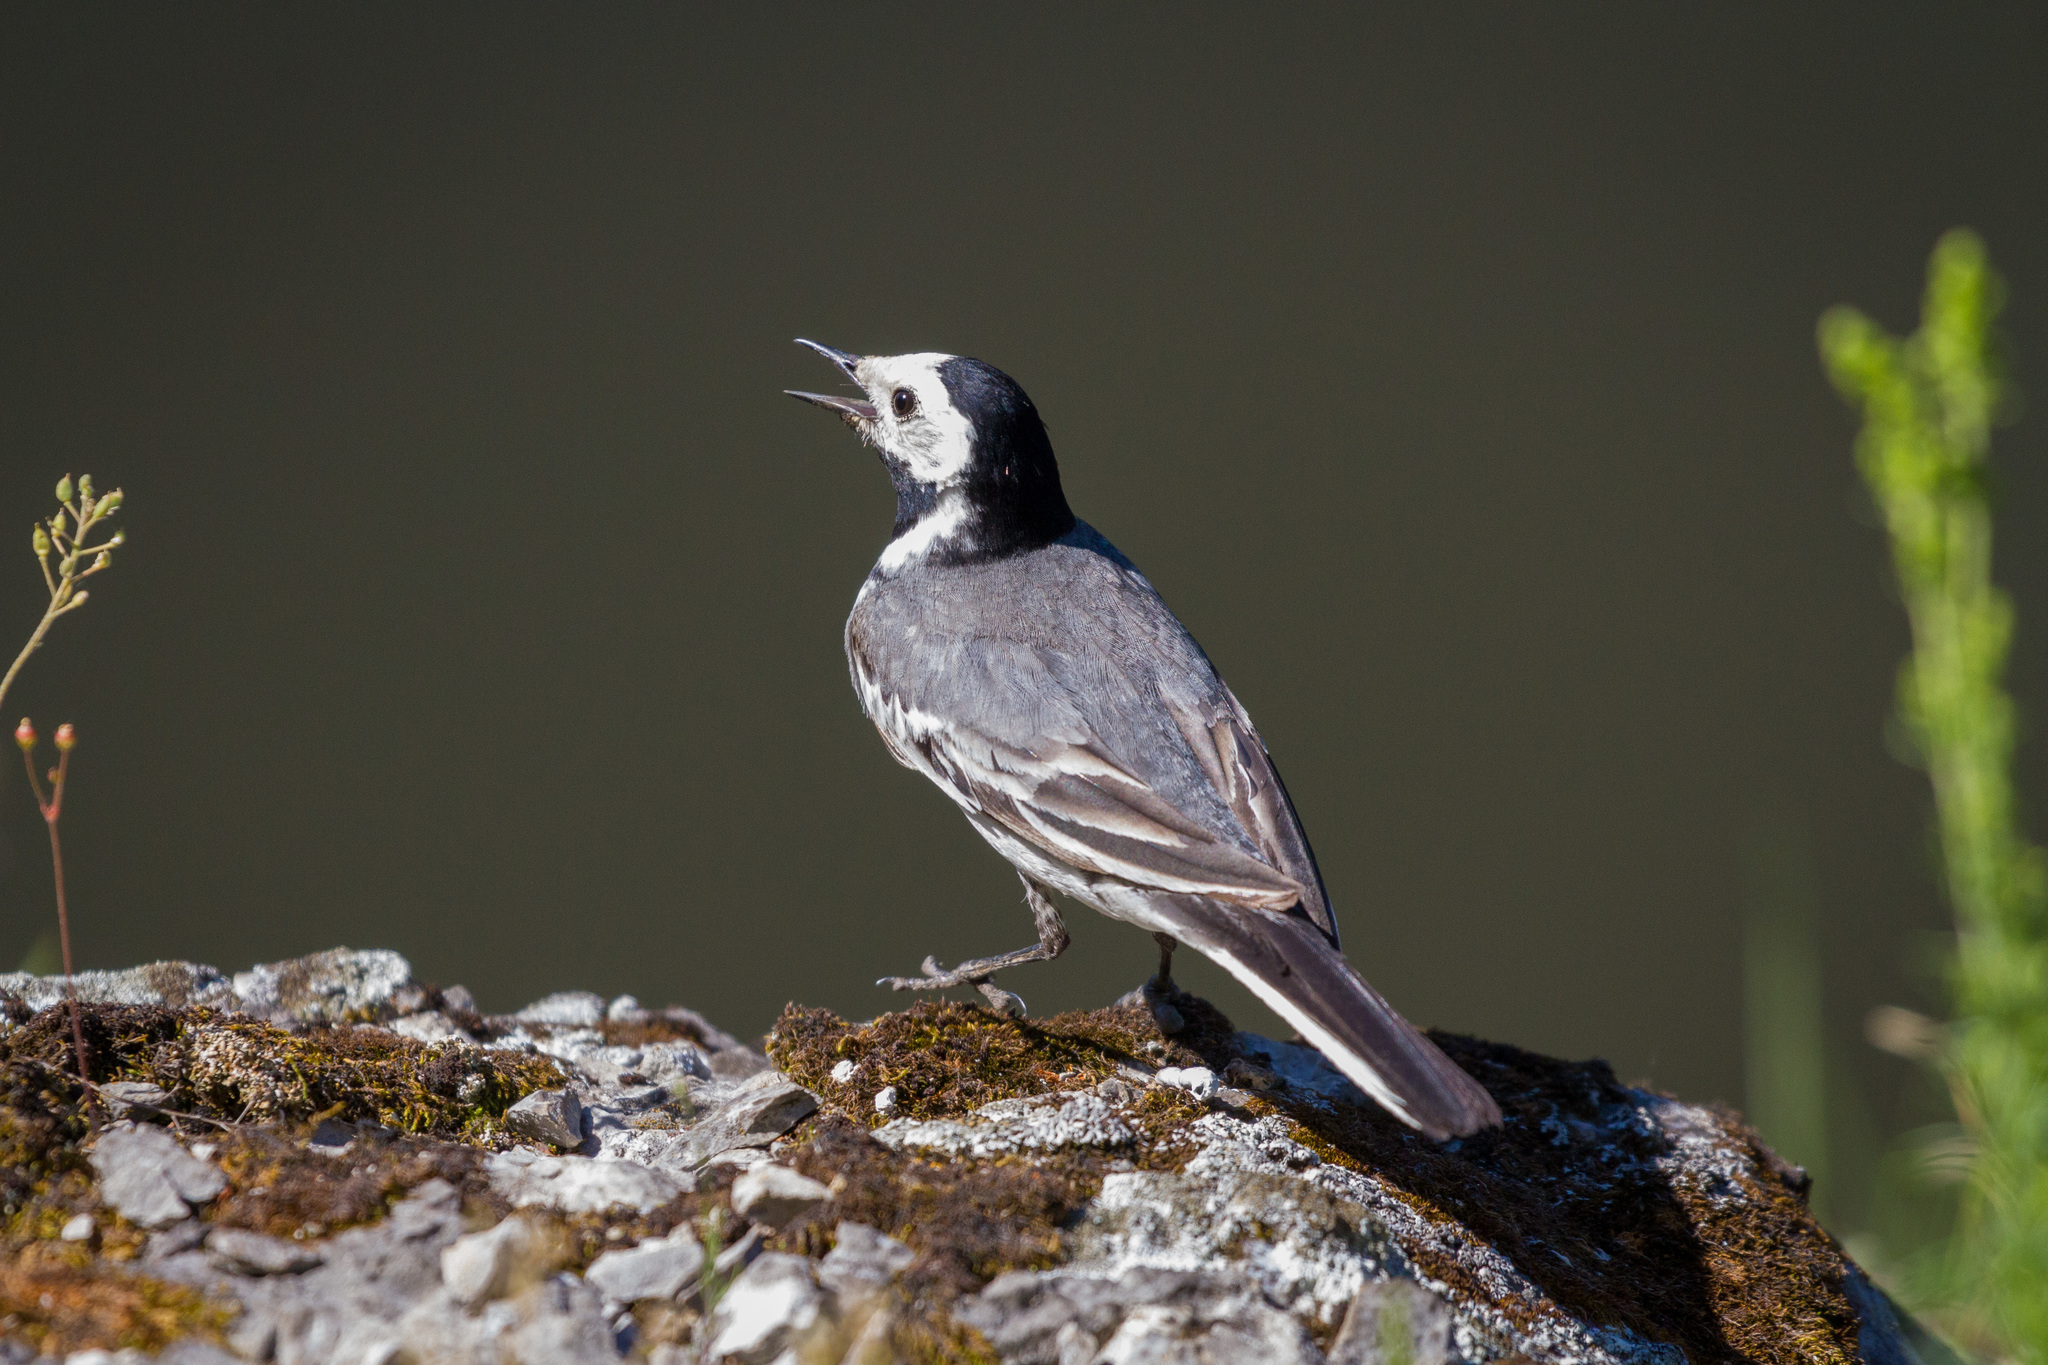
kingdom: Animalia
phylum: Chordata
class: Aves
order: Passeriformes
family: Motacillidae
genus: Motacilla
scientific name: Motacilla alba
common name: White wagtail
